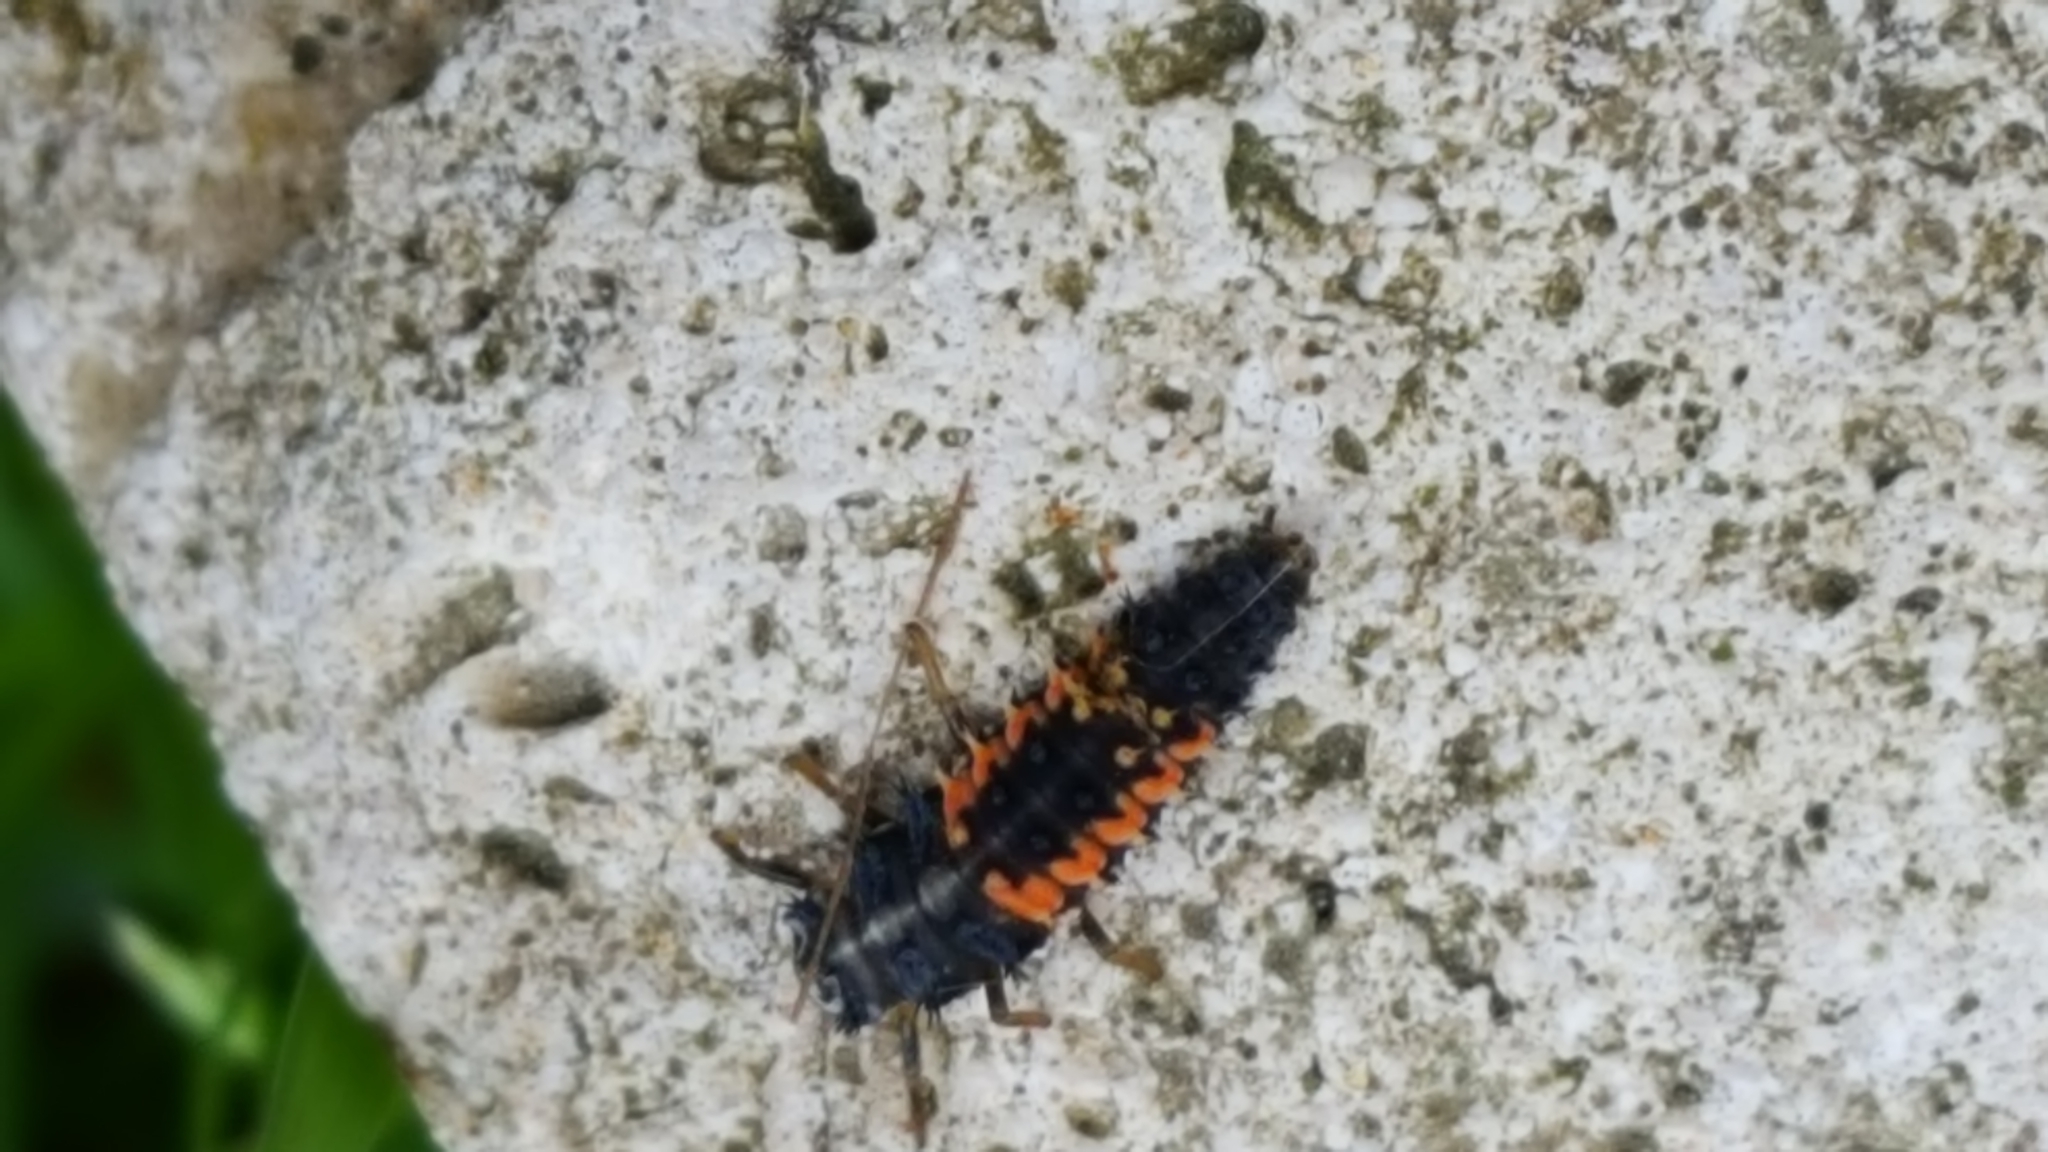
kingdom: Animalia
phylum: Arthropoda
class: Insecta
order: Coleoptera
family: Coccinellidae
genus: Harmonia
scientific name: Harmonia axyridis
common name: Harlequin ladybird
